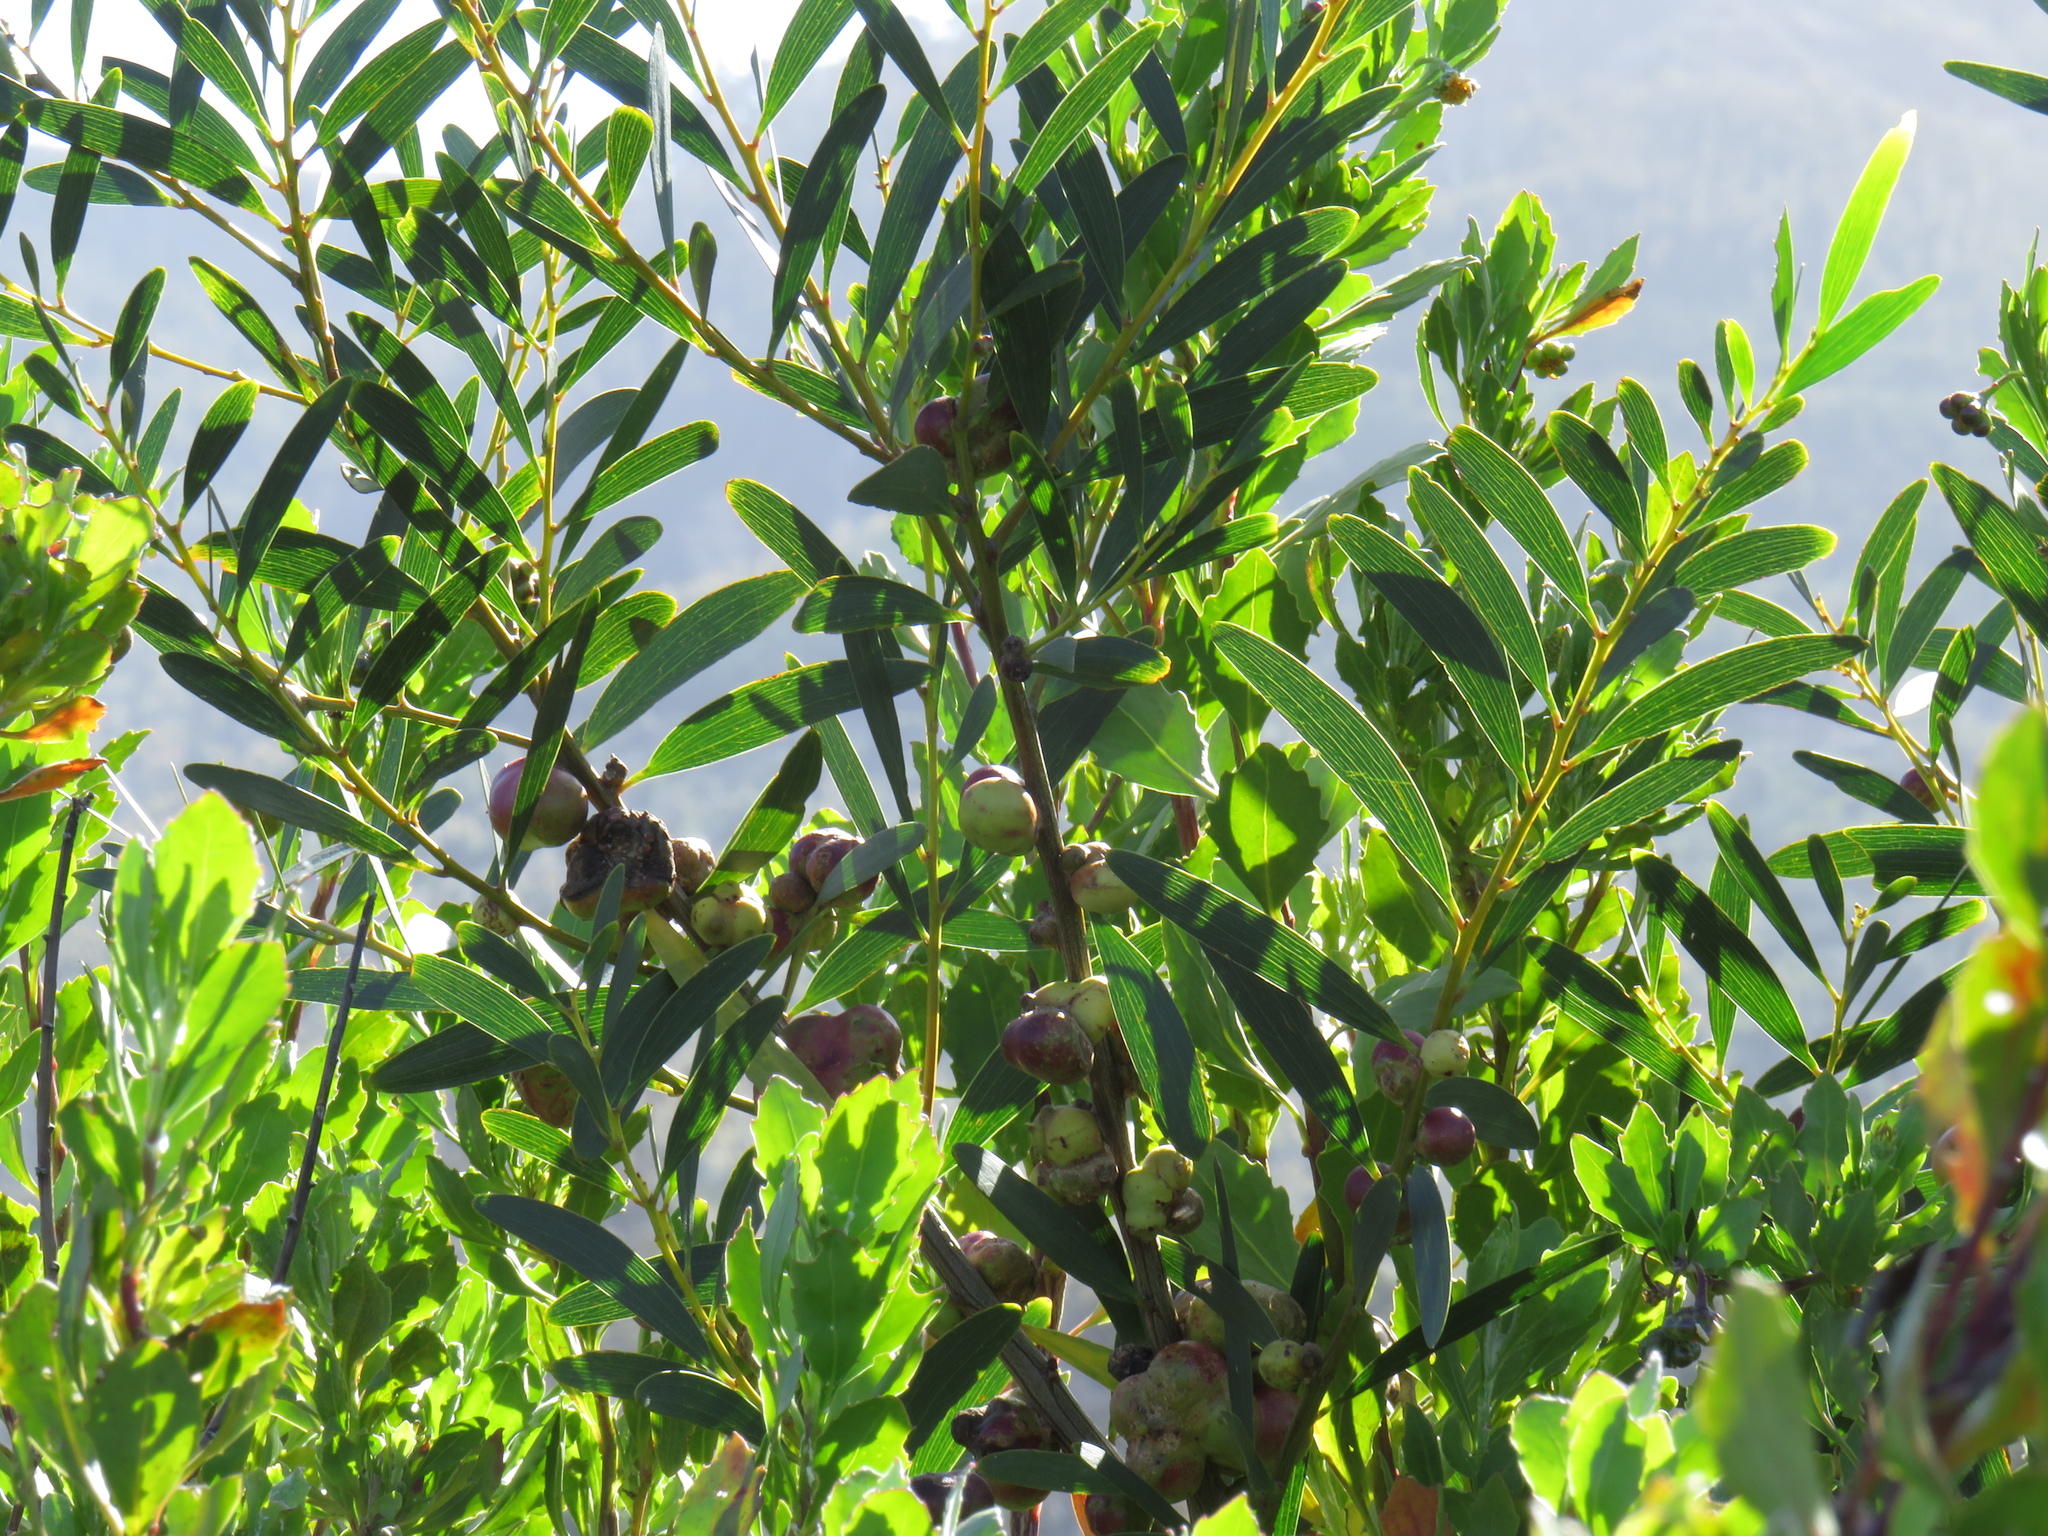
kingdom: Plantae
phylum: Tracheophyta
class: Magnoliopsida
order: Fabales
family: Fabaceae
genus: Acacia
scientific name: Acacia longifolia
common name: Sydney golden wattle
